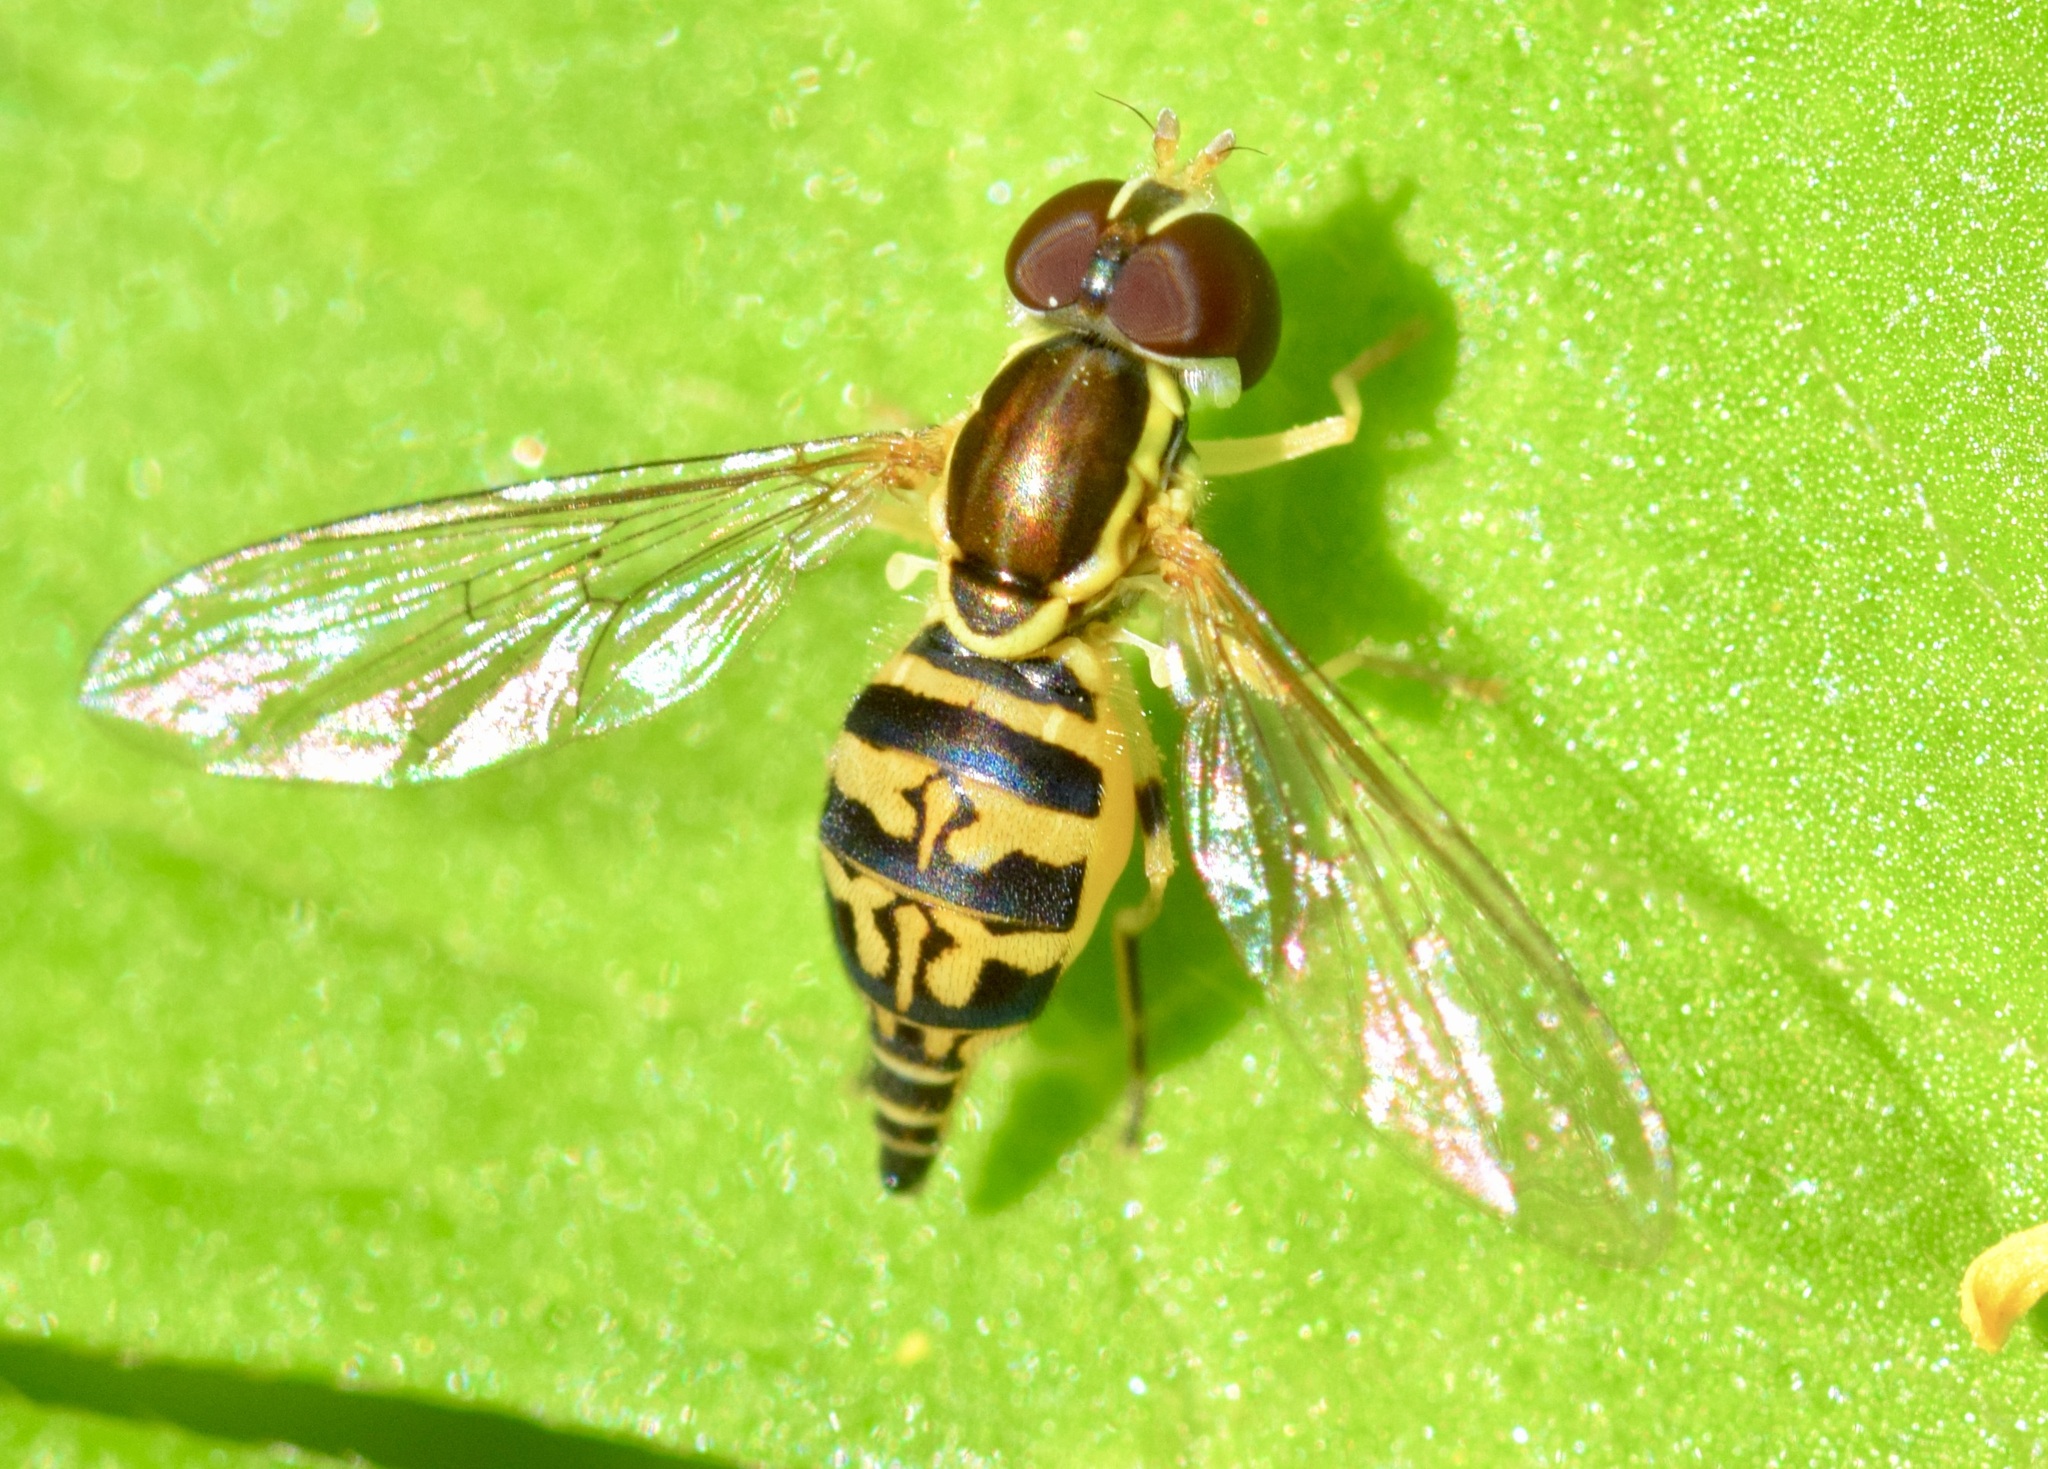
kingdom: Animalia
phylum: Arthropoda
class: Insecta
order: Diptera
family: Syrphidae
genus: Toxomerus
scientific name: Toxomerus geminatus
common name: Eastern calligrapher
